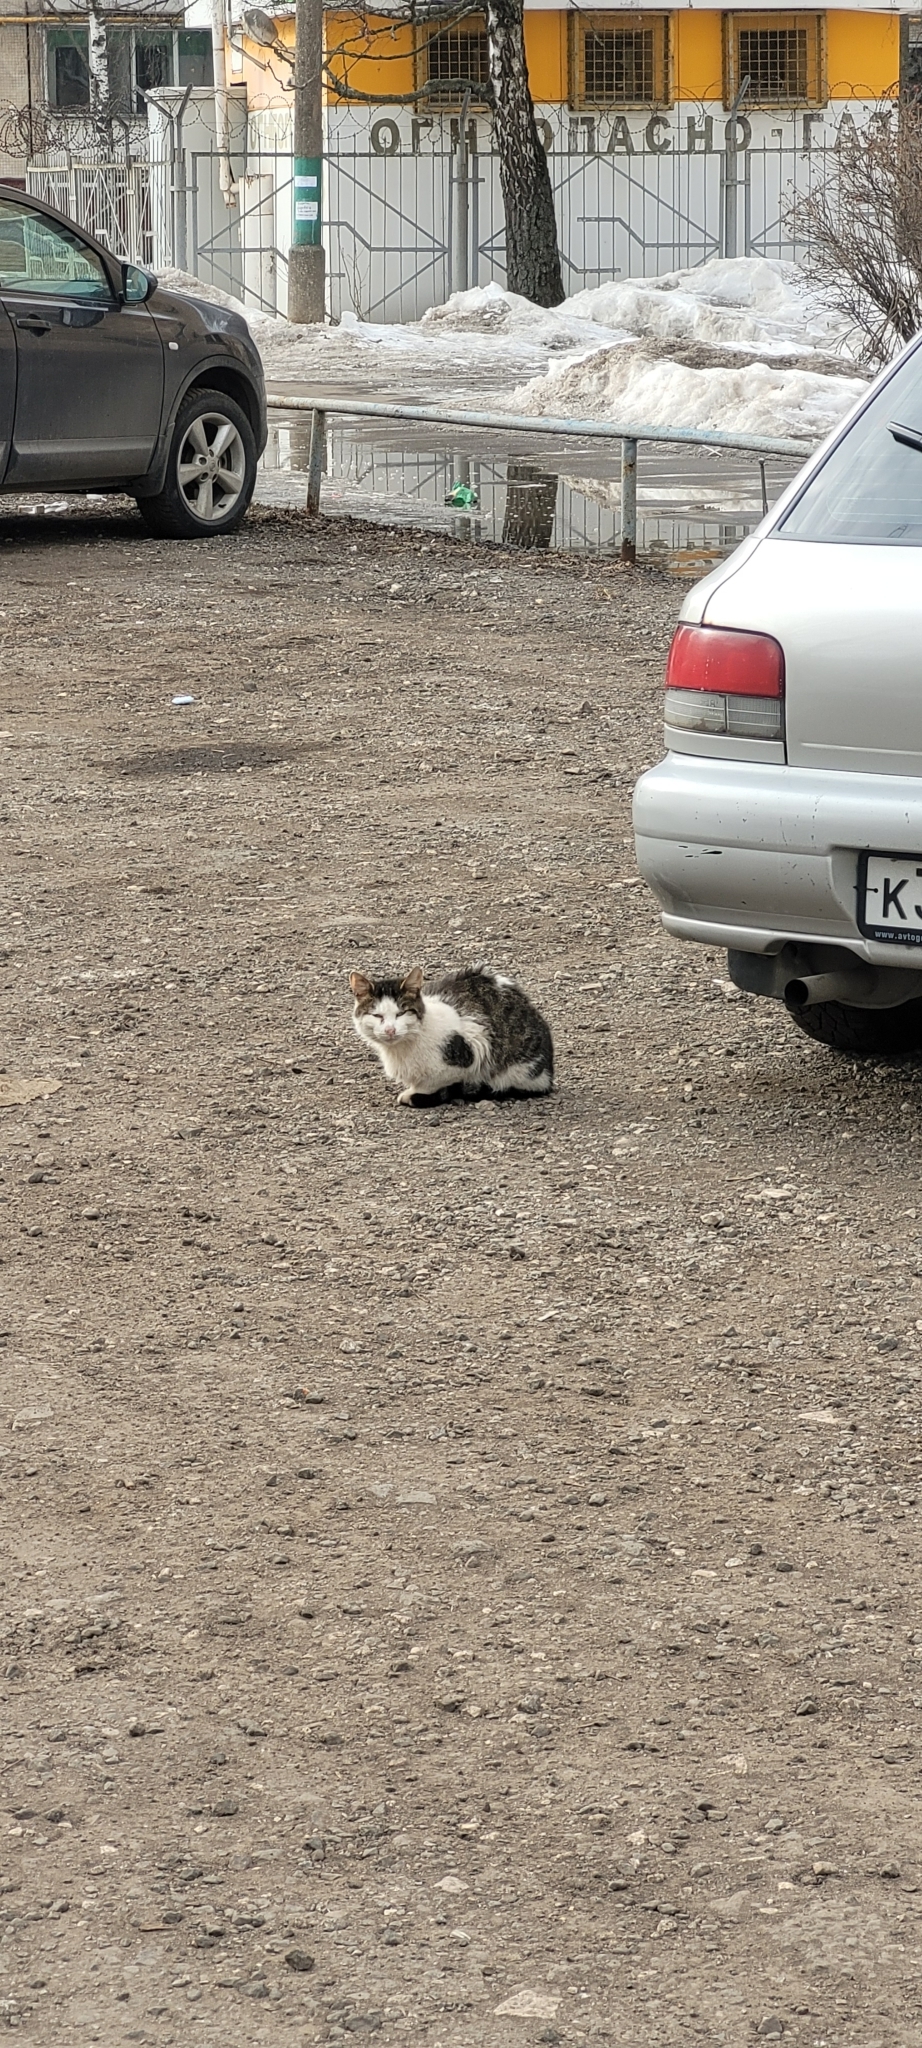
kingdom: Animalia
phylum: Chordata
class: Mammalia
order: Carnivora
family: Felidae
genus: Felis
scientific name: Felis catus
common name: Domestic cat
